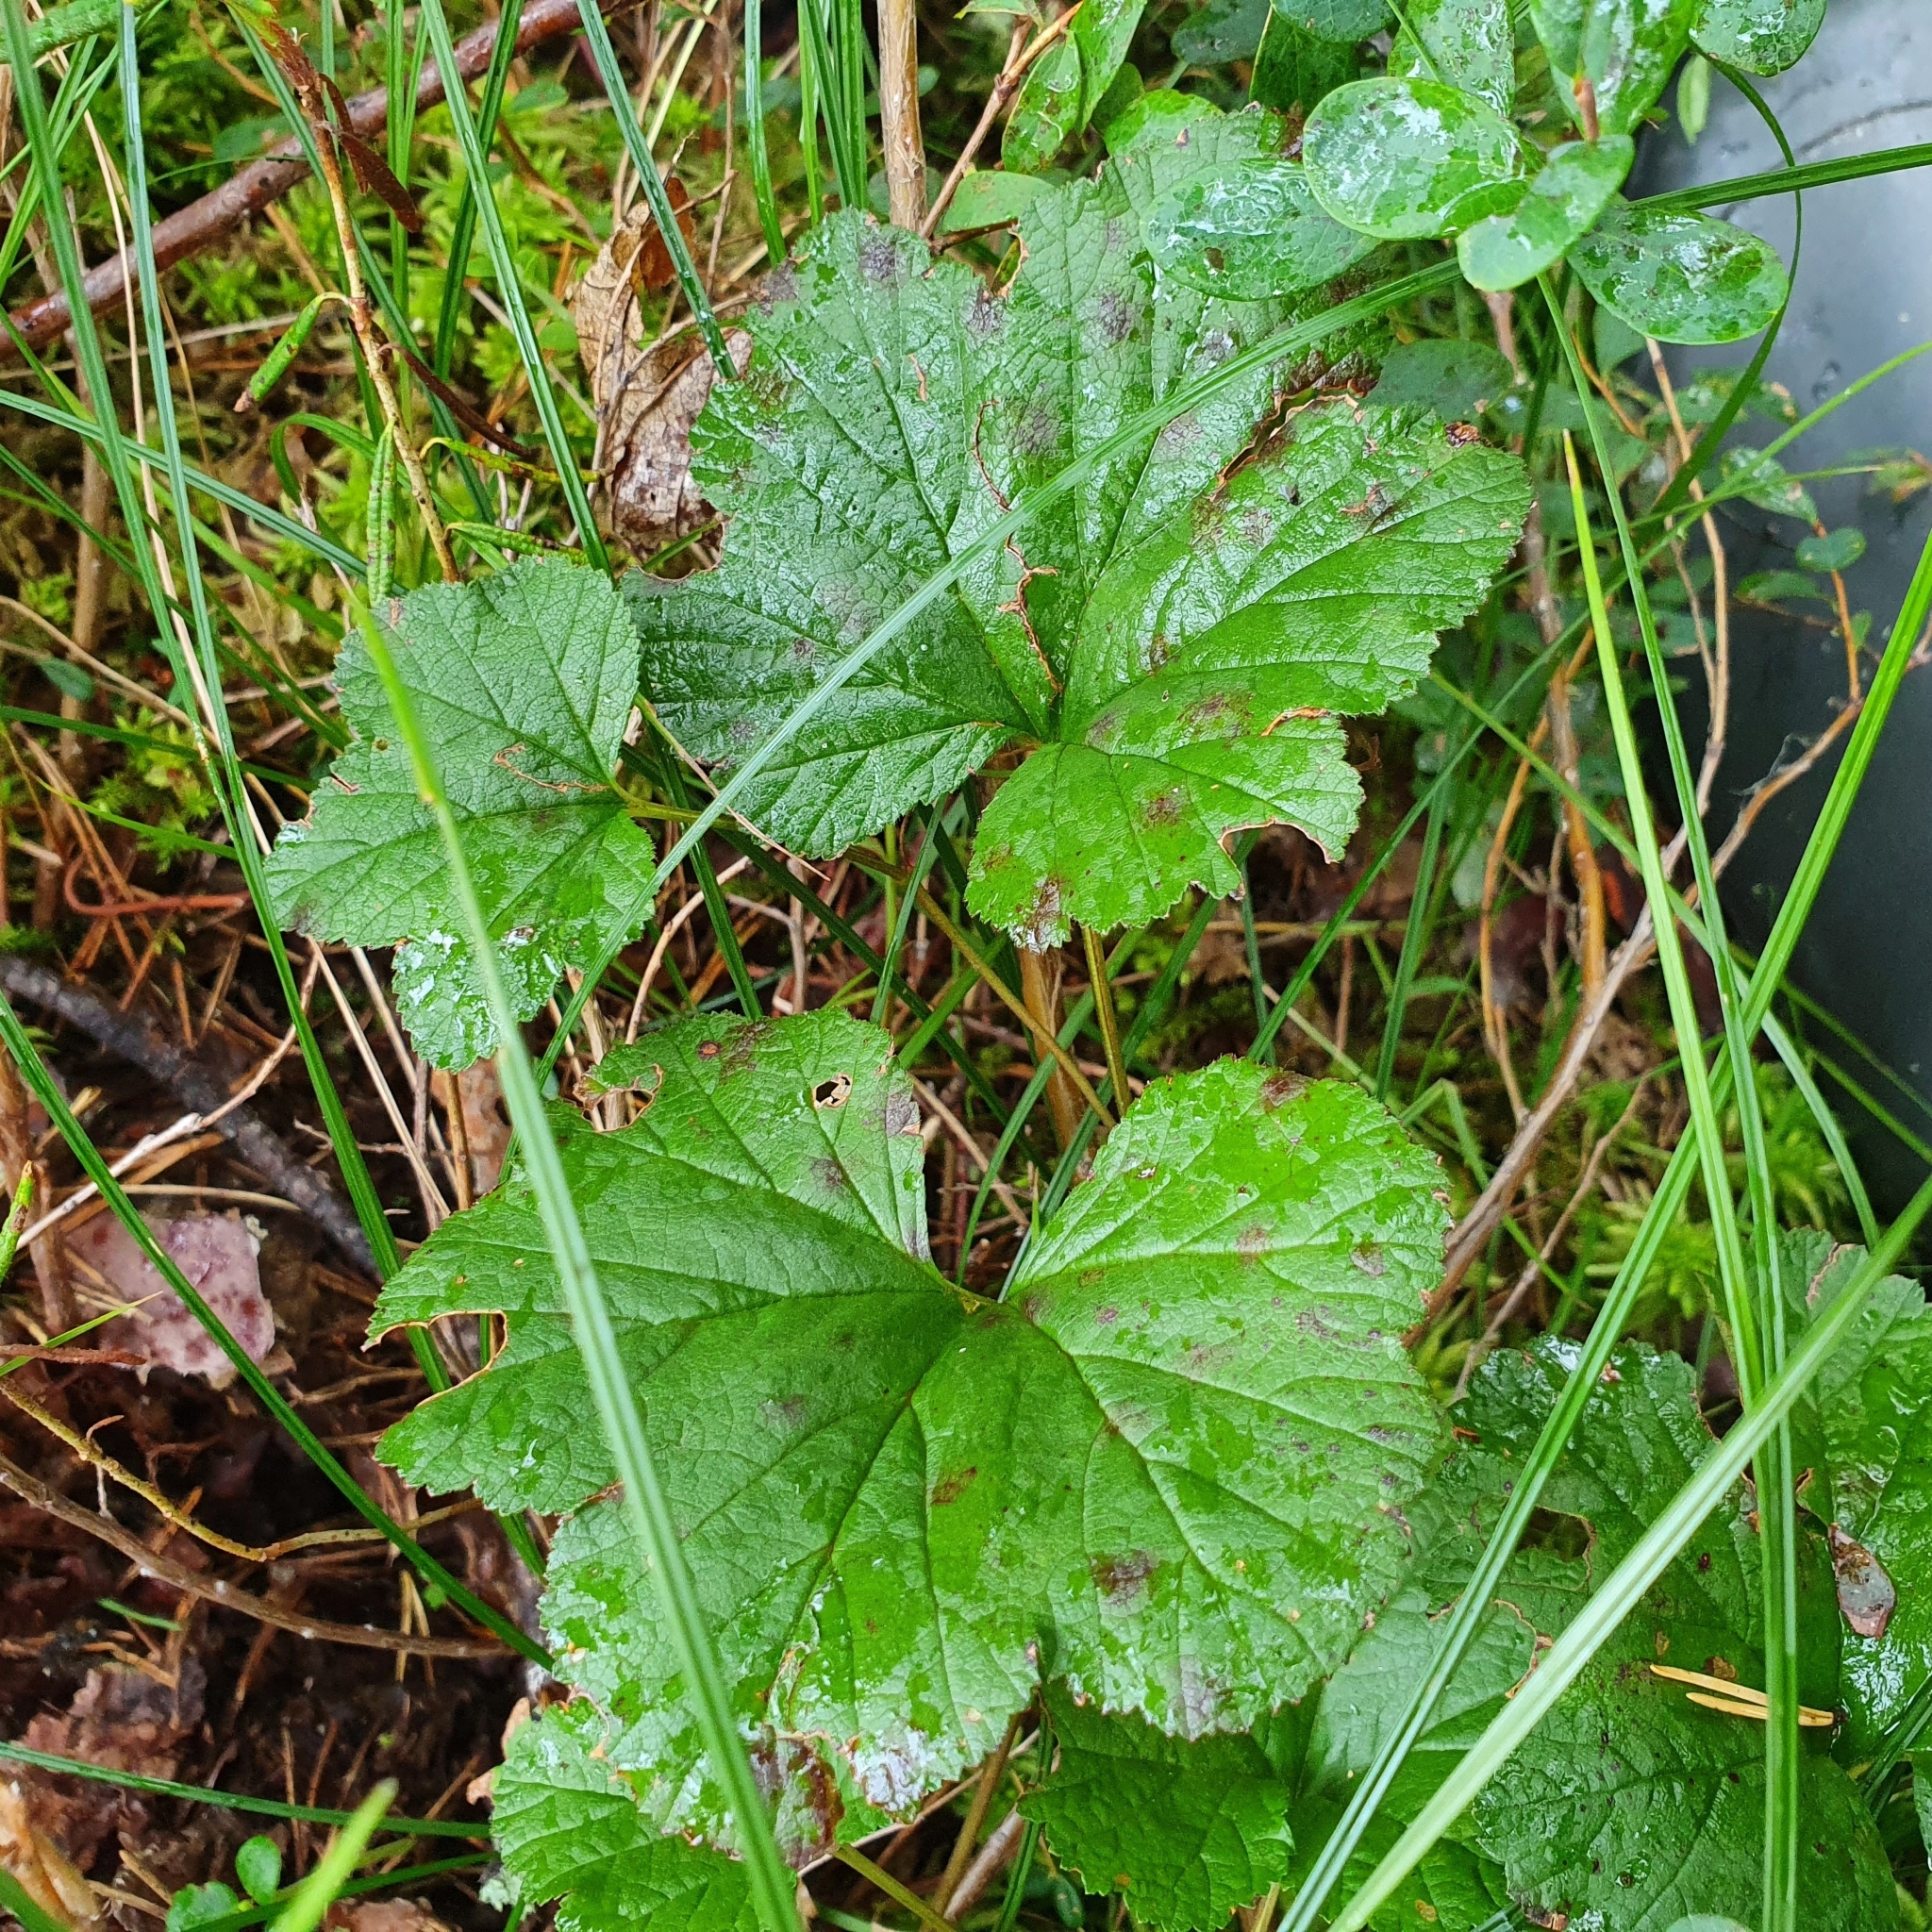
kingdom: Plantae
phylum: Tracheophyta
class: Magnoliopsida
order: Rosales
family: Rosaceae
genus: Rubus
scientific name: Rubus chamaemorus
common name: Cloudberry
